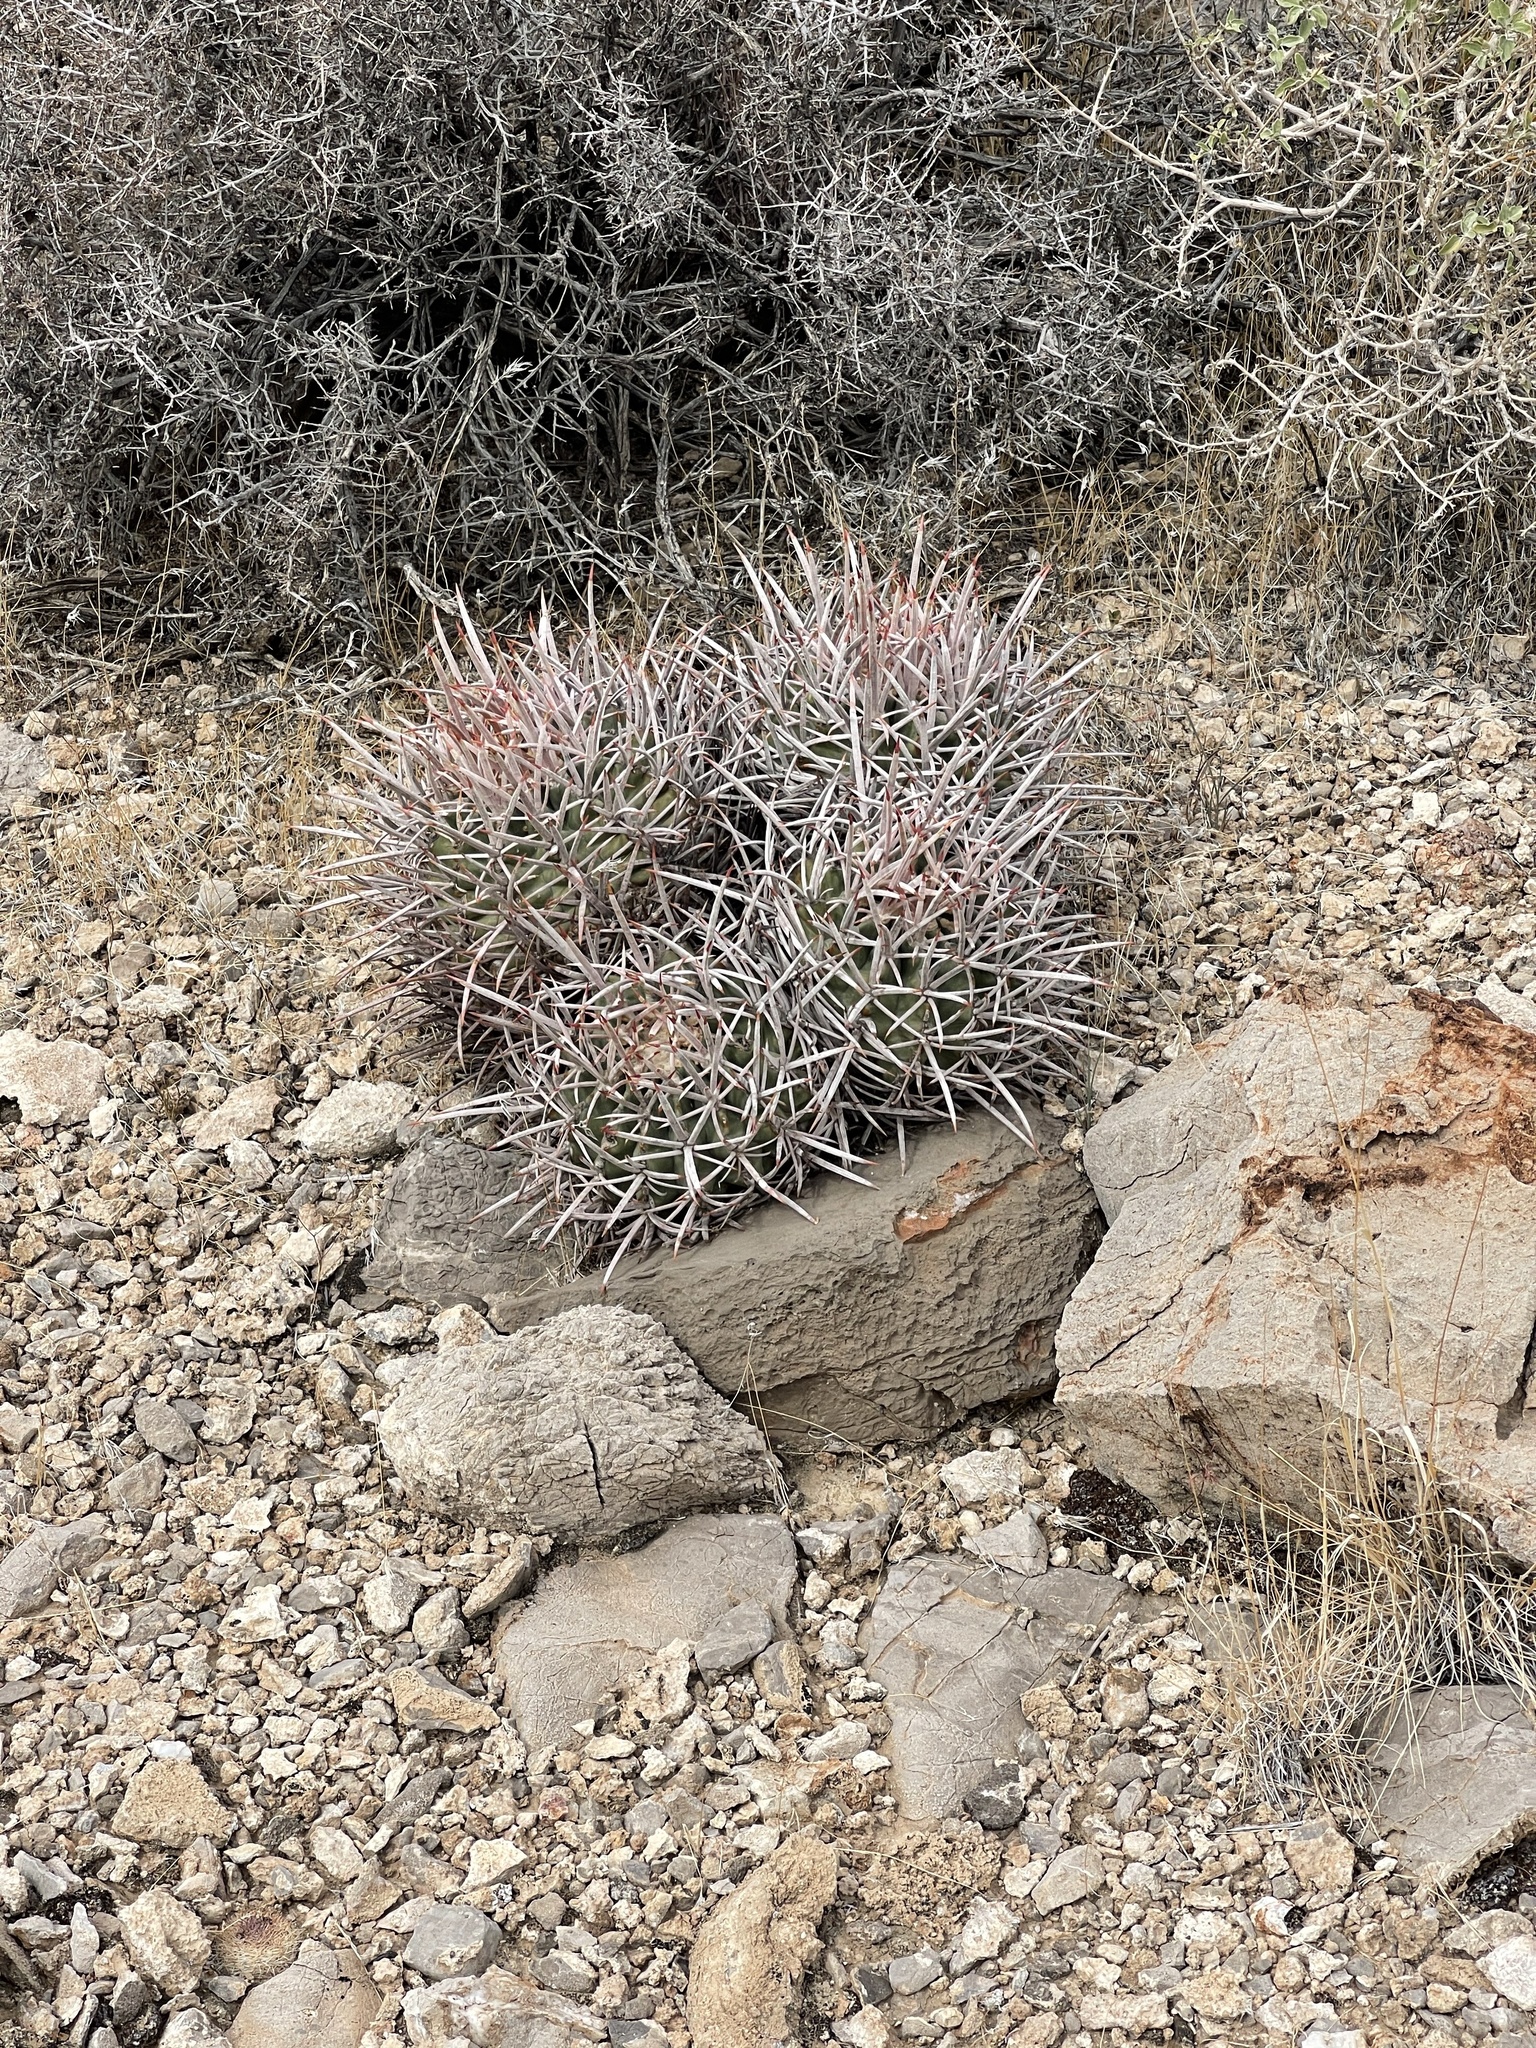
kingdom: Plantae
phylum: Tracheophyta
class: Magnoliopsida
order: Caryophyllales
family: Cactaceae
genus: Echinocactus
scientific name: Echinocactus polycephalus
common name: Cottontop cactus
